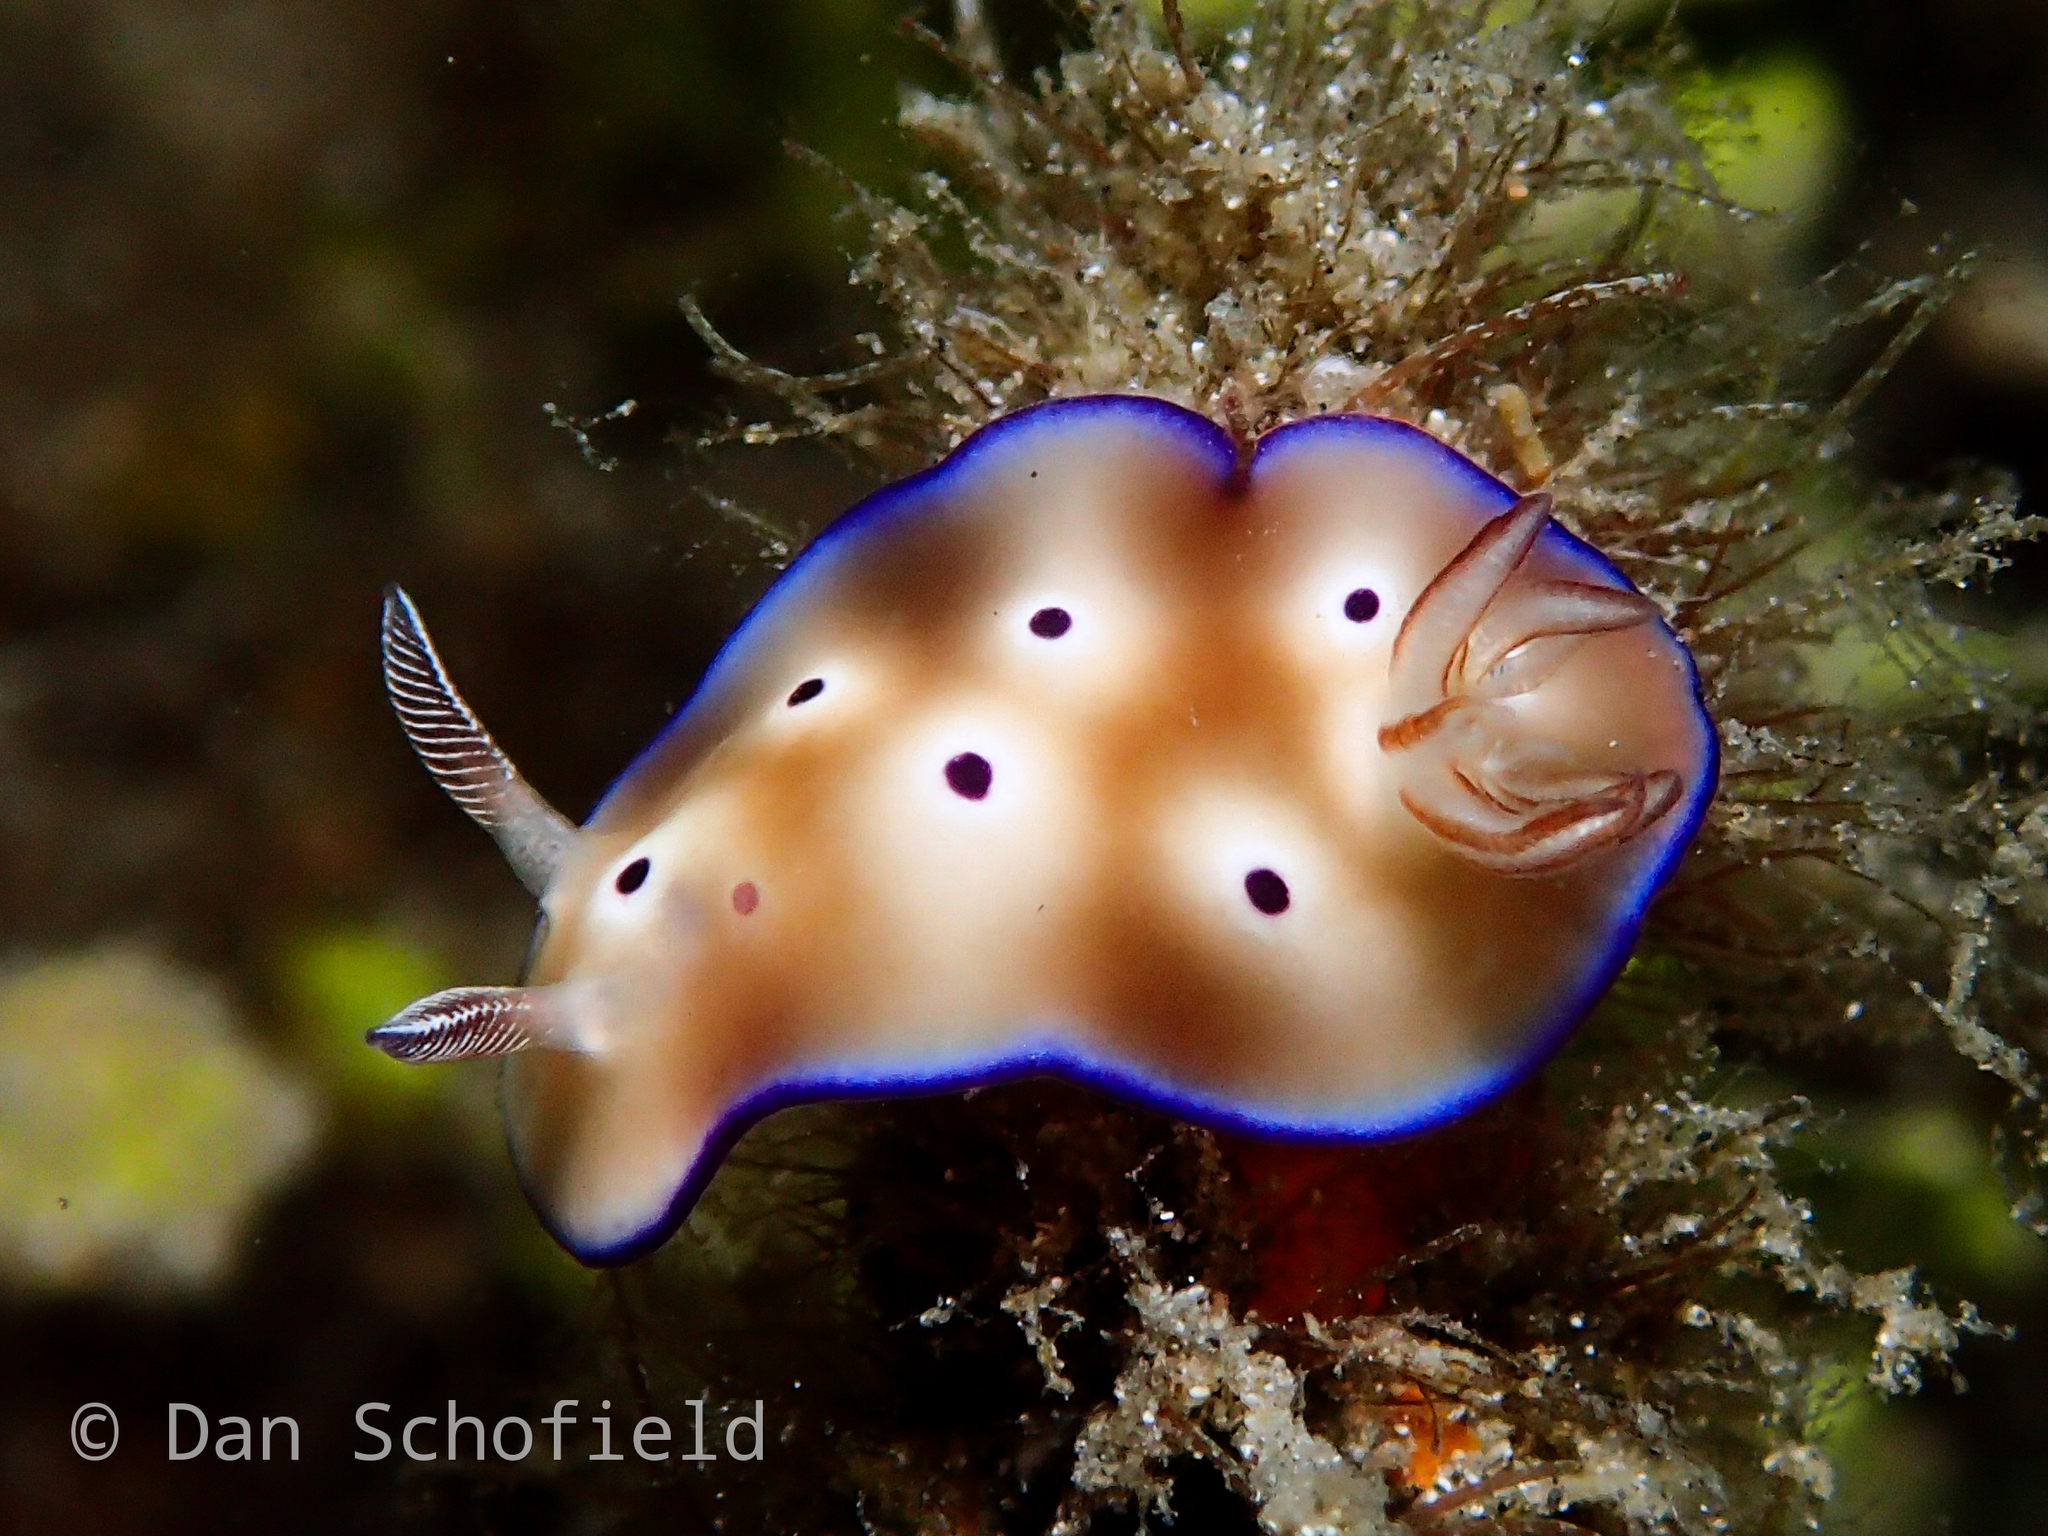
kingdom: Animalia
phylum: Mollusca
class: Gastropoda
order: Nudibranchia
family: Chromodorididae
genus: Hypselodoris
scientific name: Hypselodoris tryoni
